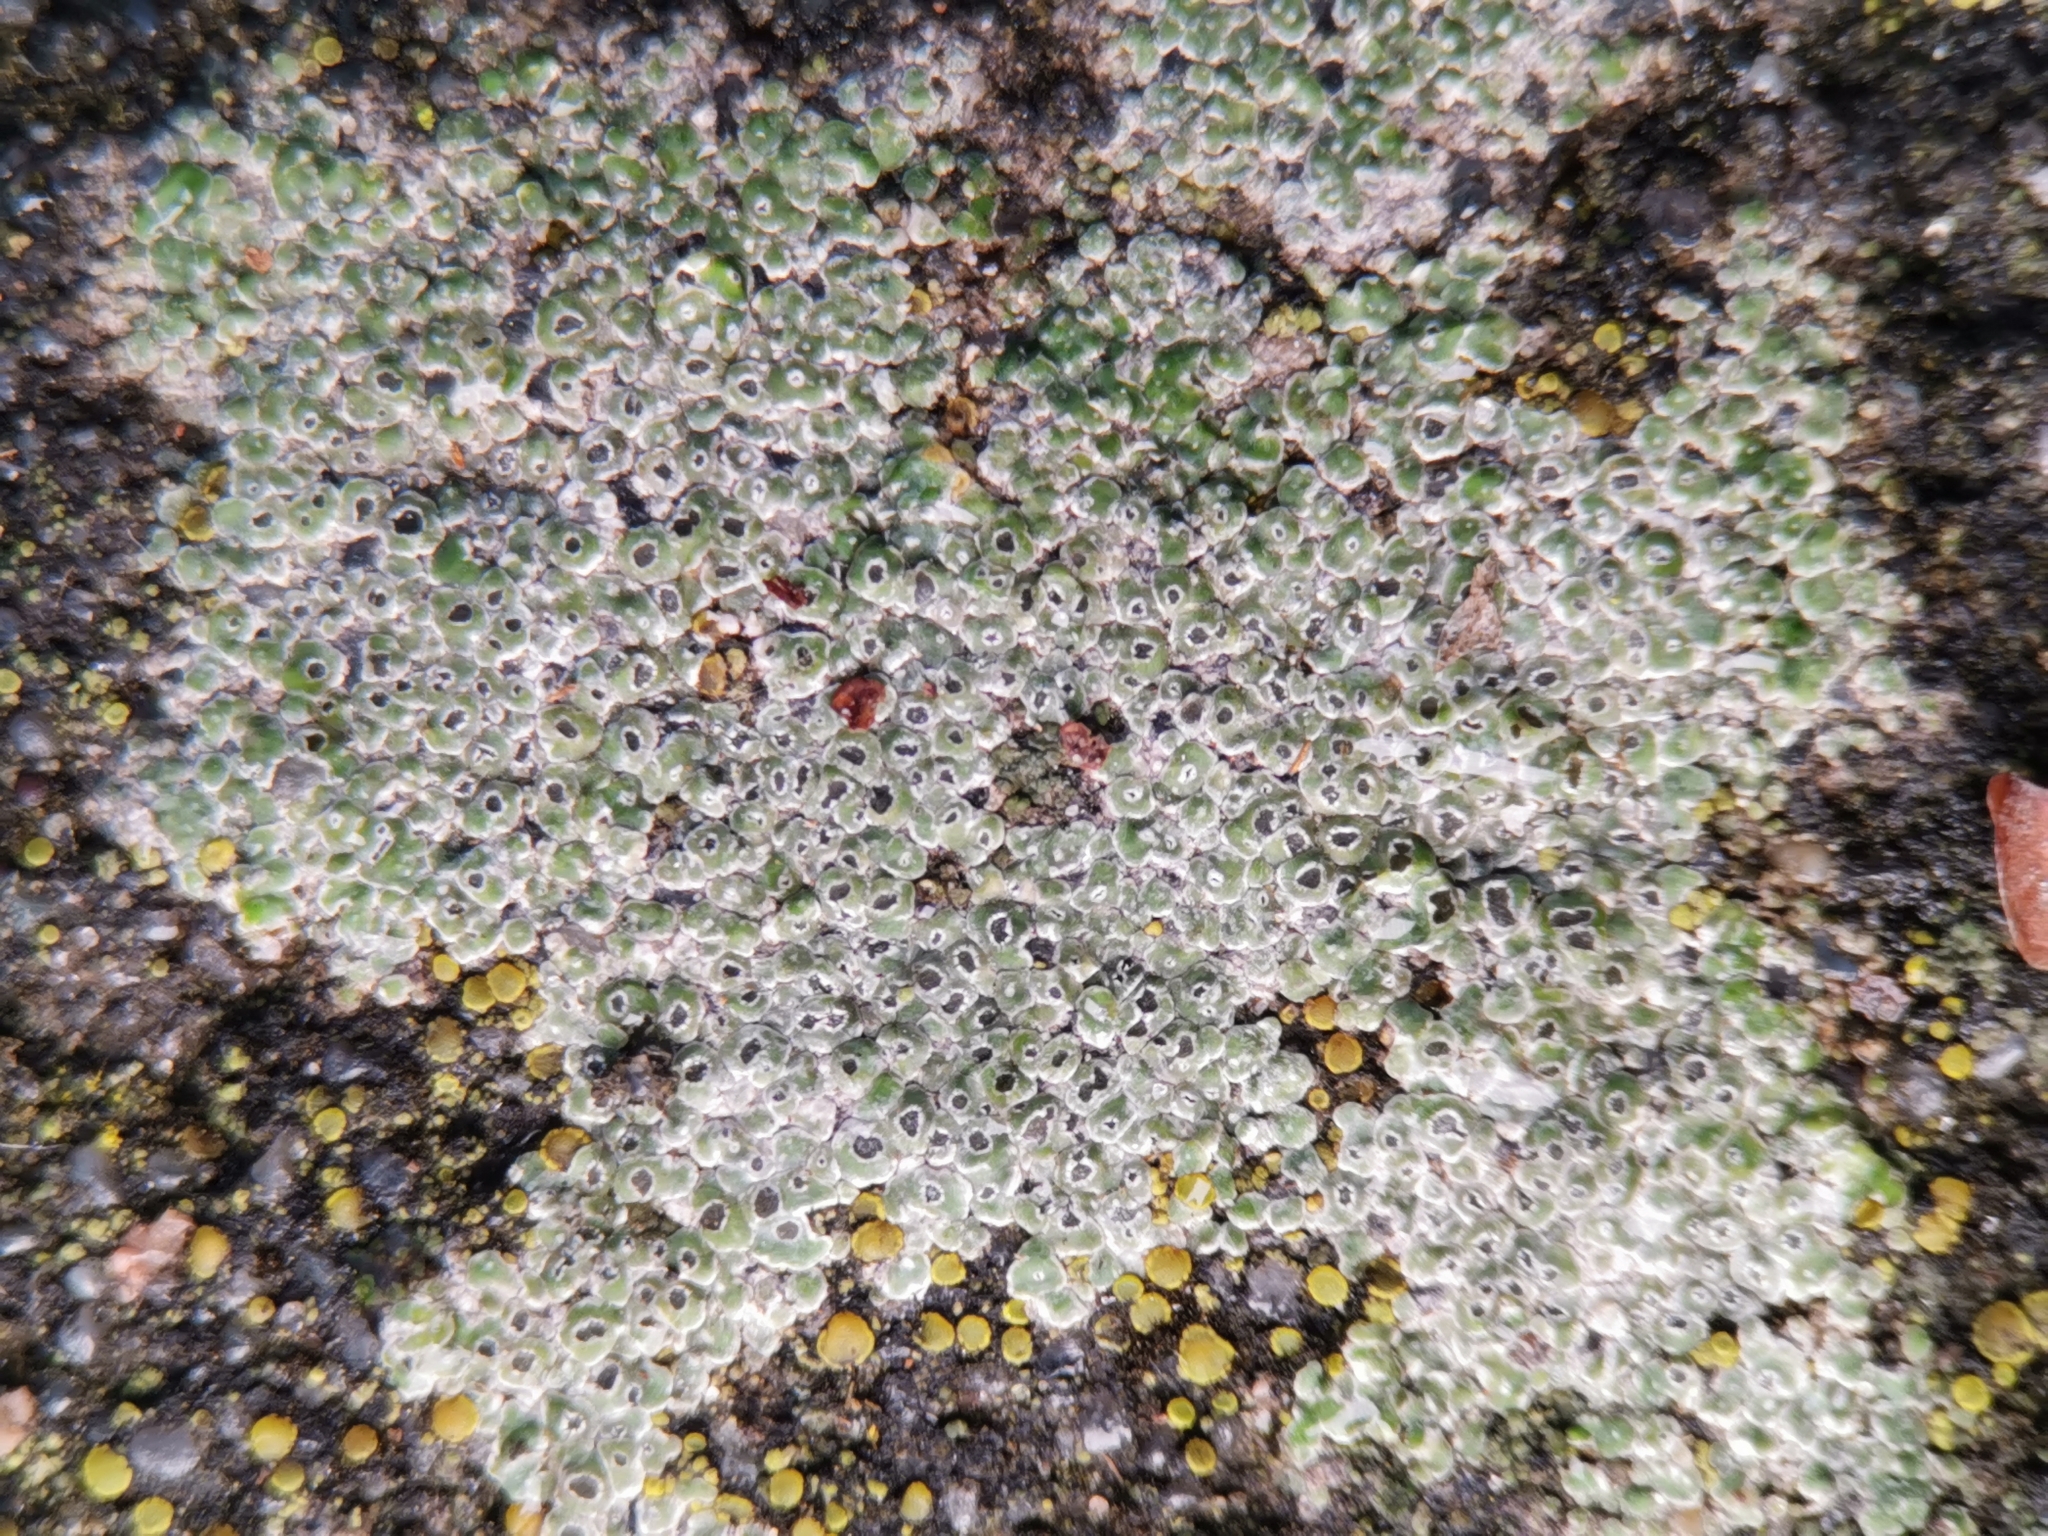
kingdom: Fungi
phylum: Ascomycota
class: Lecanoromycetes
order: Pertusariales
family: Megasporaceae
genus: Circinaria
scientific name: Circinaria contorta
